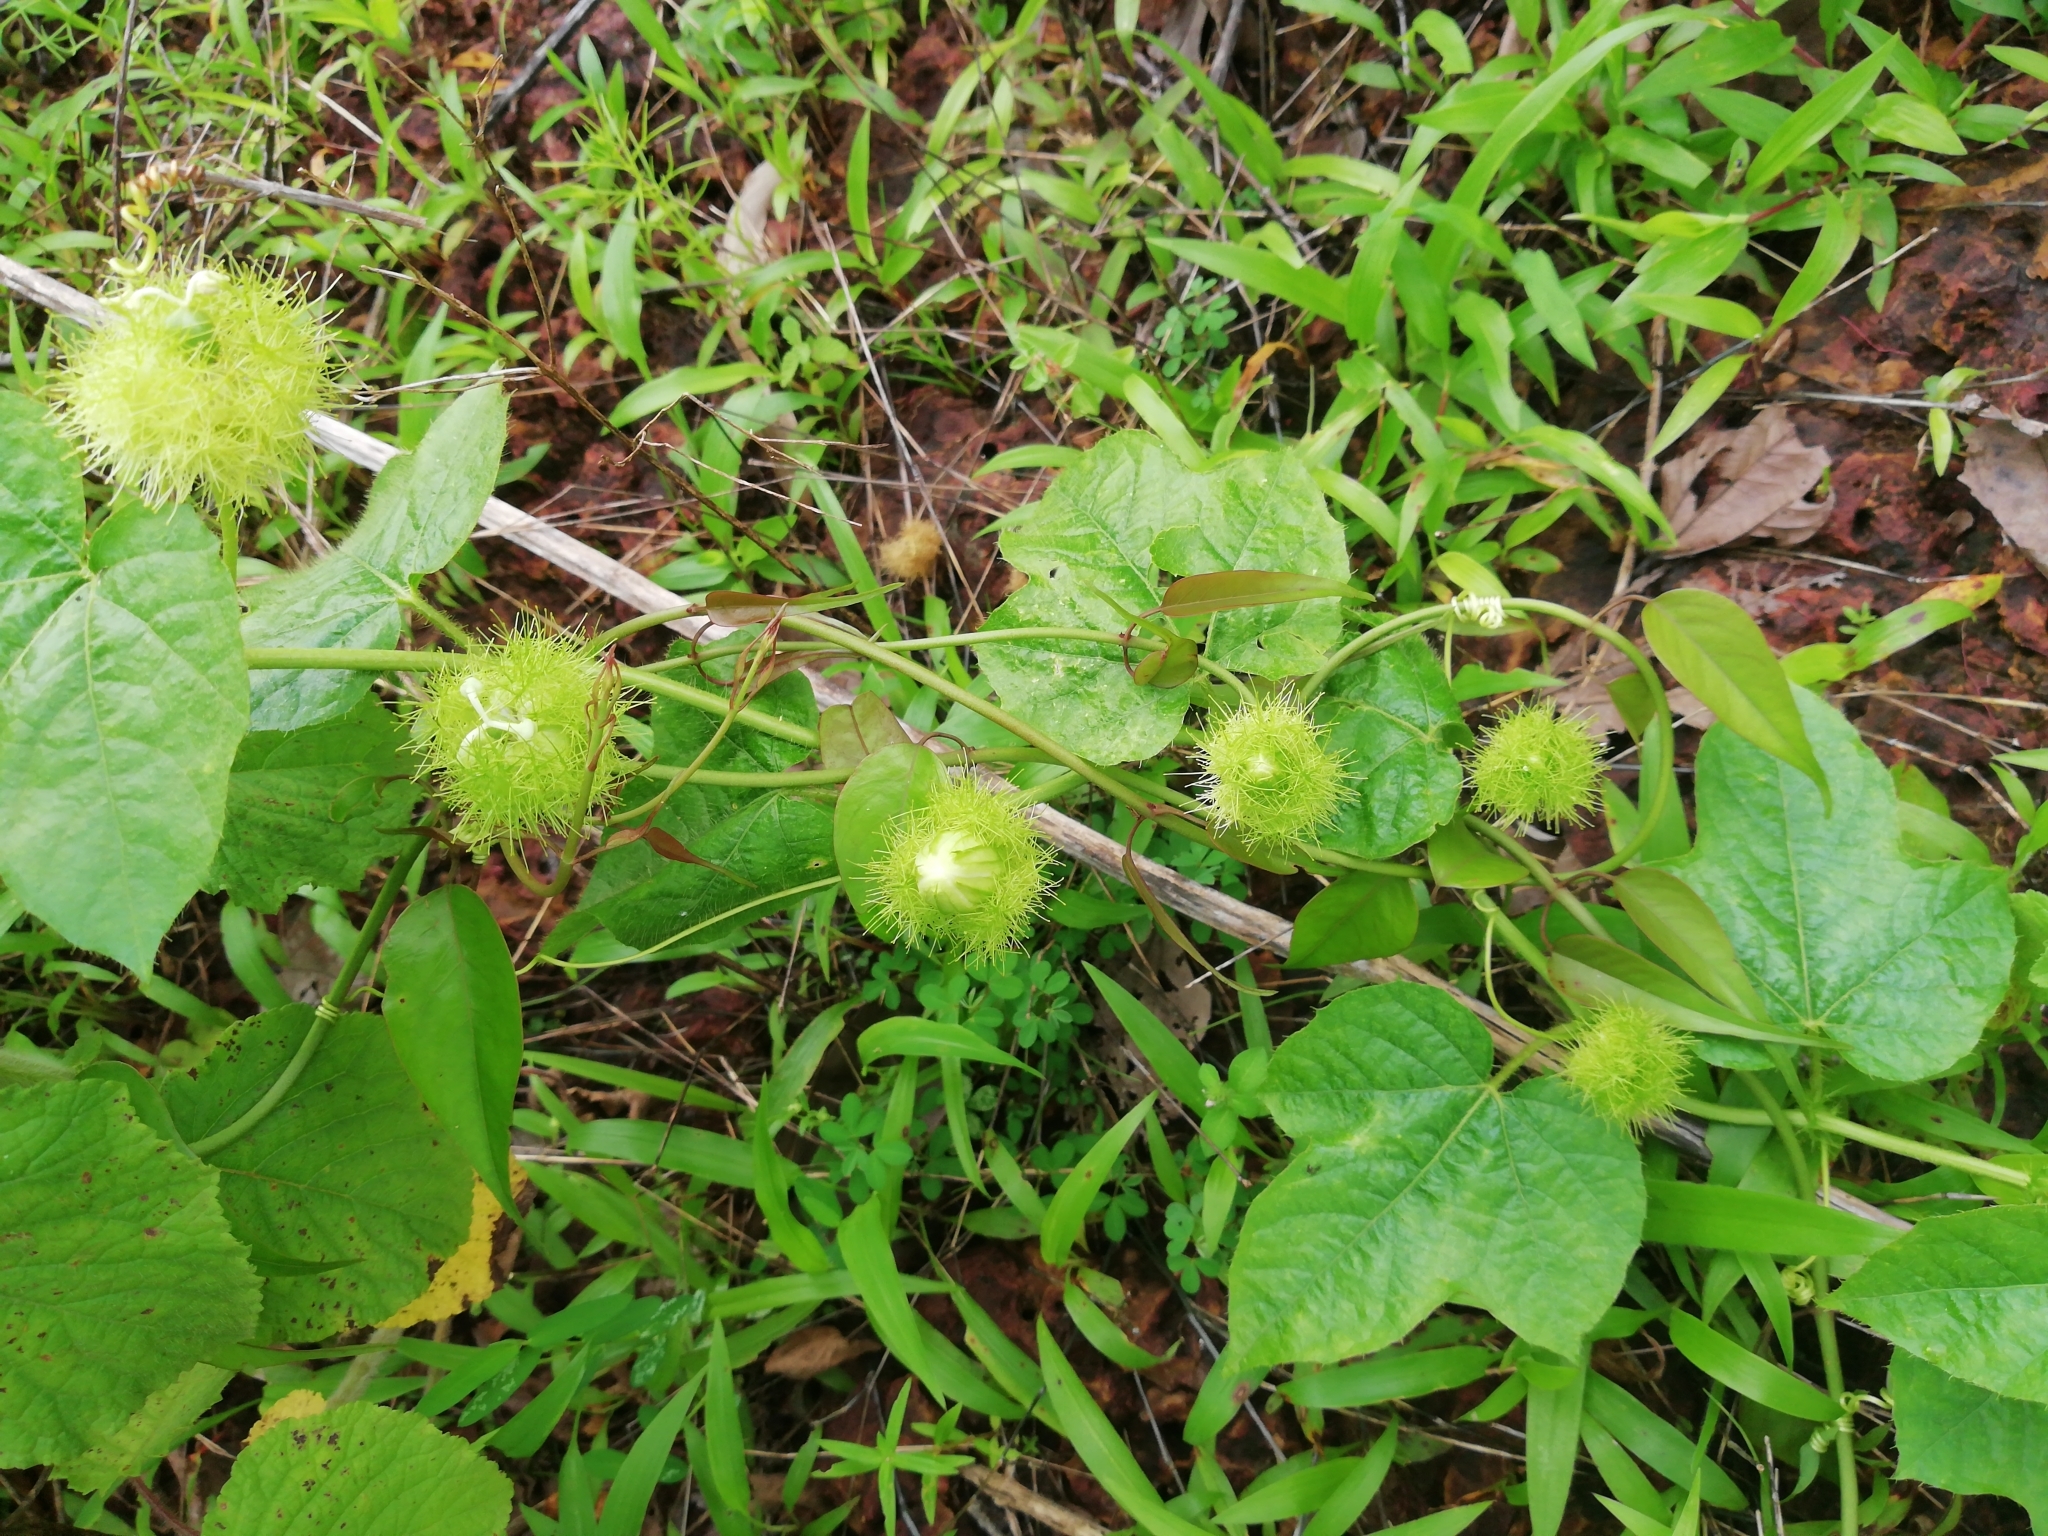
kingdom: Plantae
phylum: Tracheophyta
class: Magnoliopsida
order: Malpighiales
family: Passifloraceae
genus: Passiflora
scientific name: Passiflora foetida
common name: Fetid passionflower
